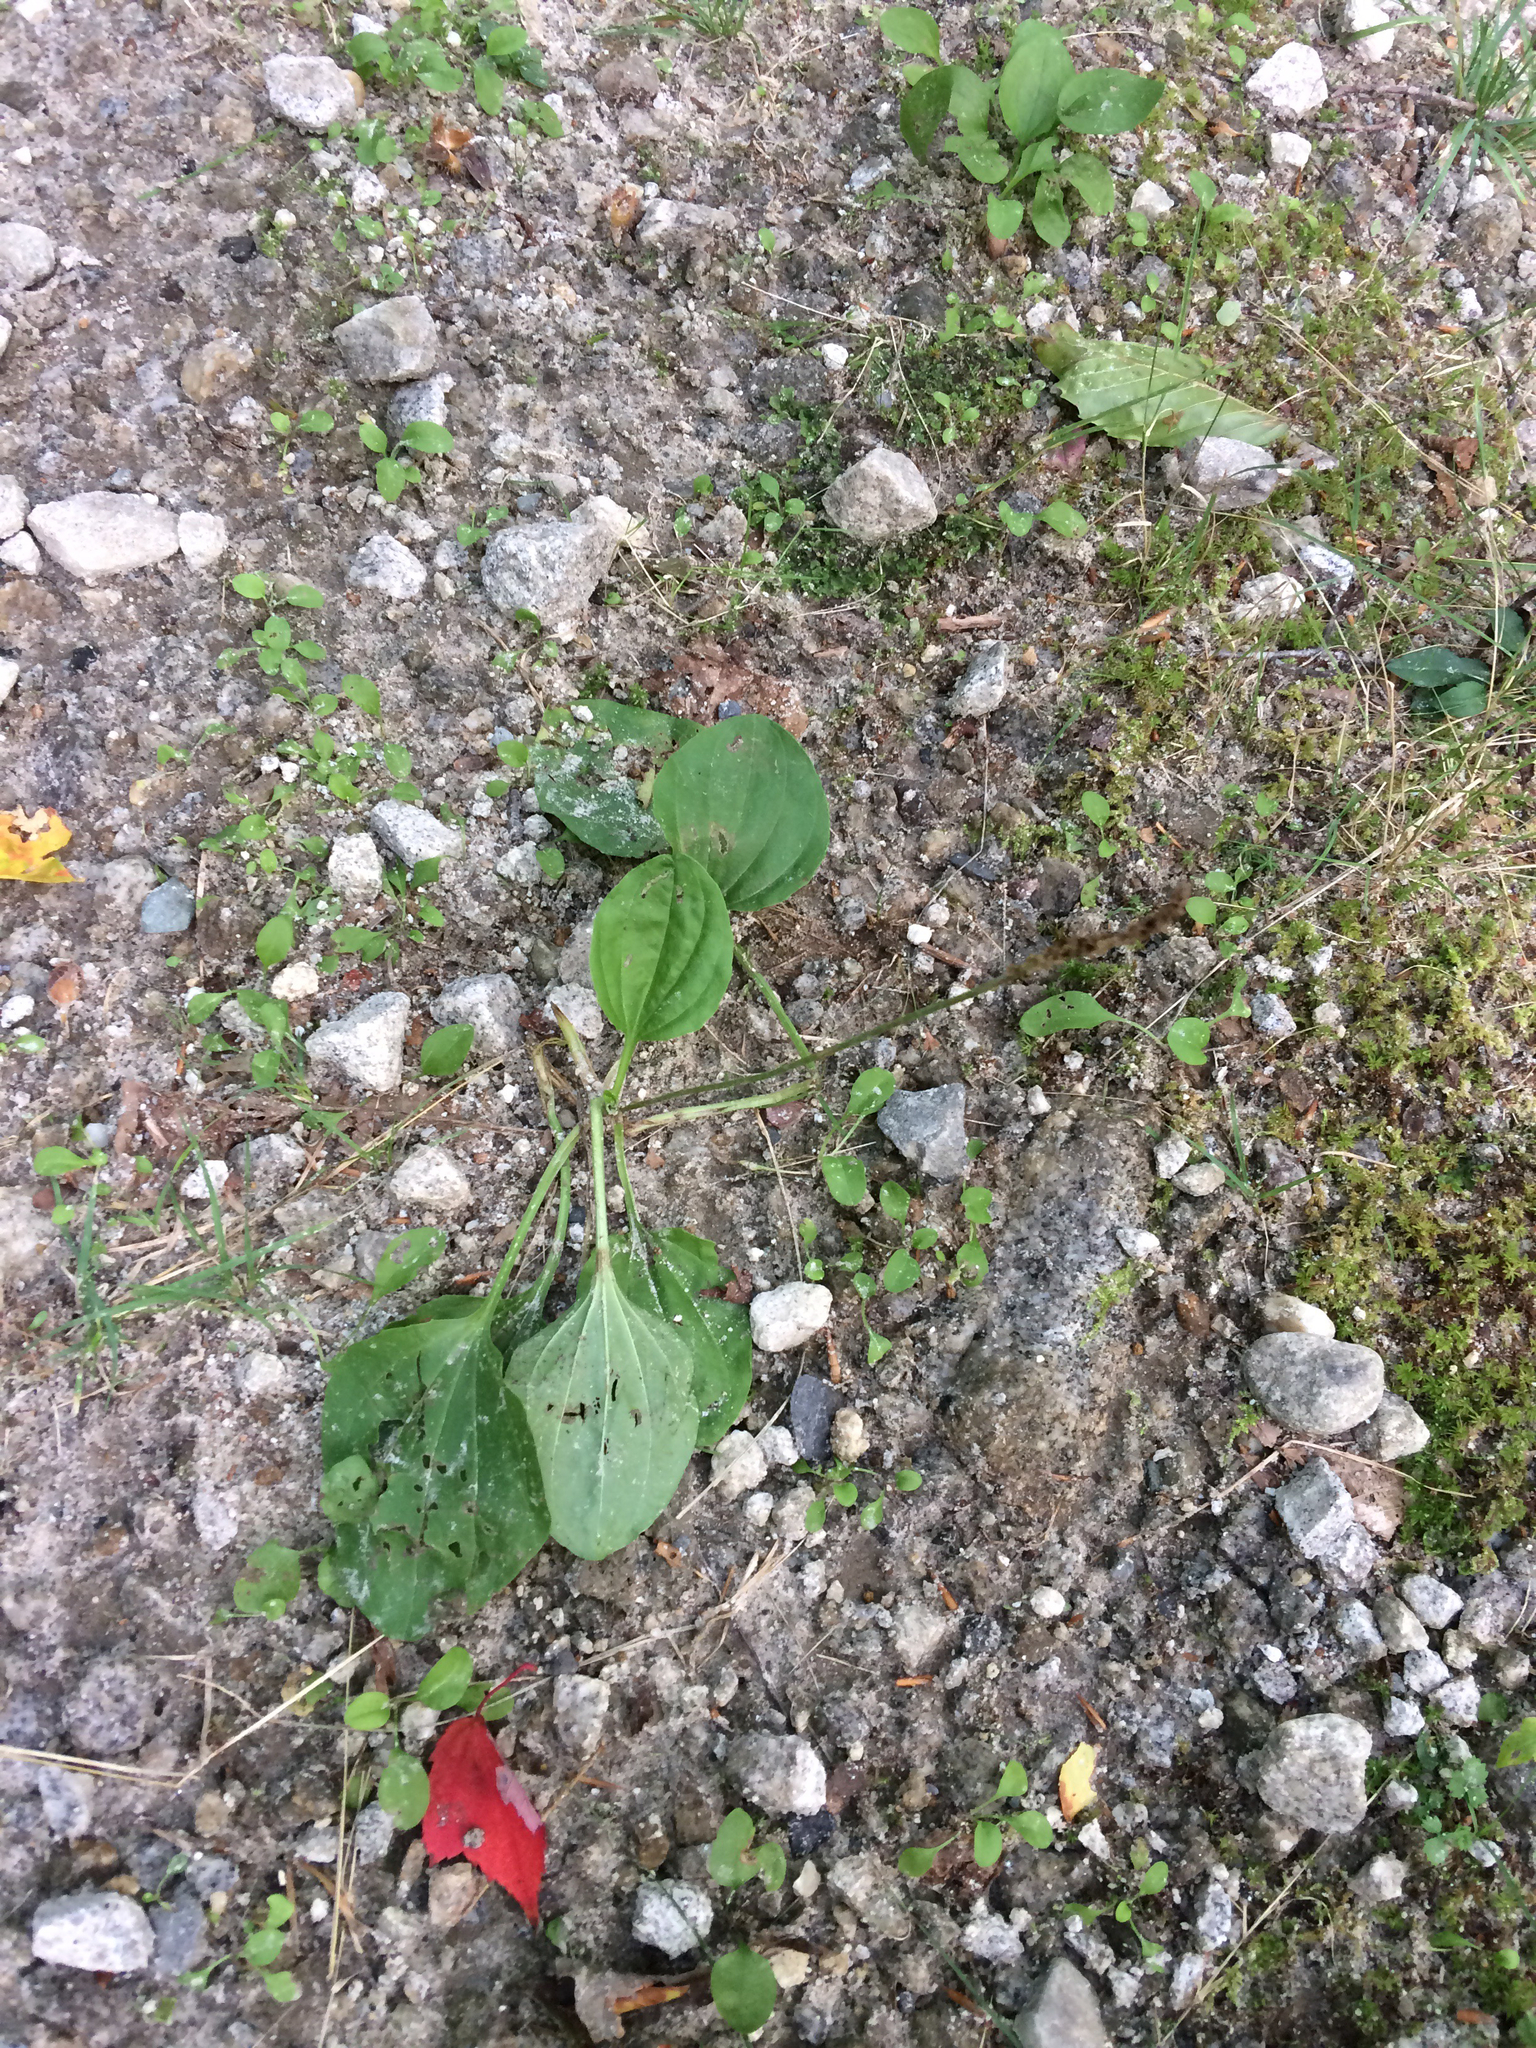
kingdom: Plantae
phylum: Tracheophyta
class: Magnoliopsida
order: Lamiales
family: Plantaginaceae
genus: Plantago
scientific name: Plantago major
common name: Common plantain
